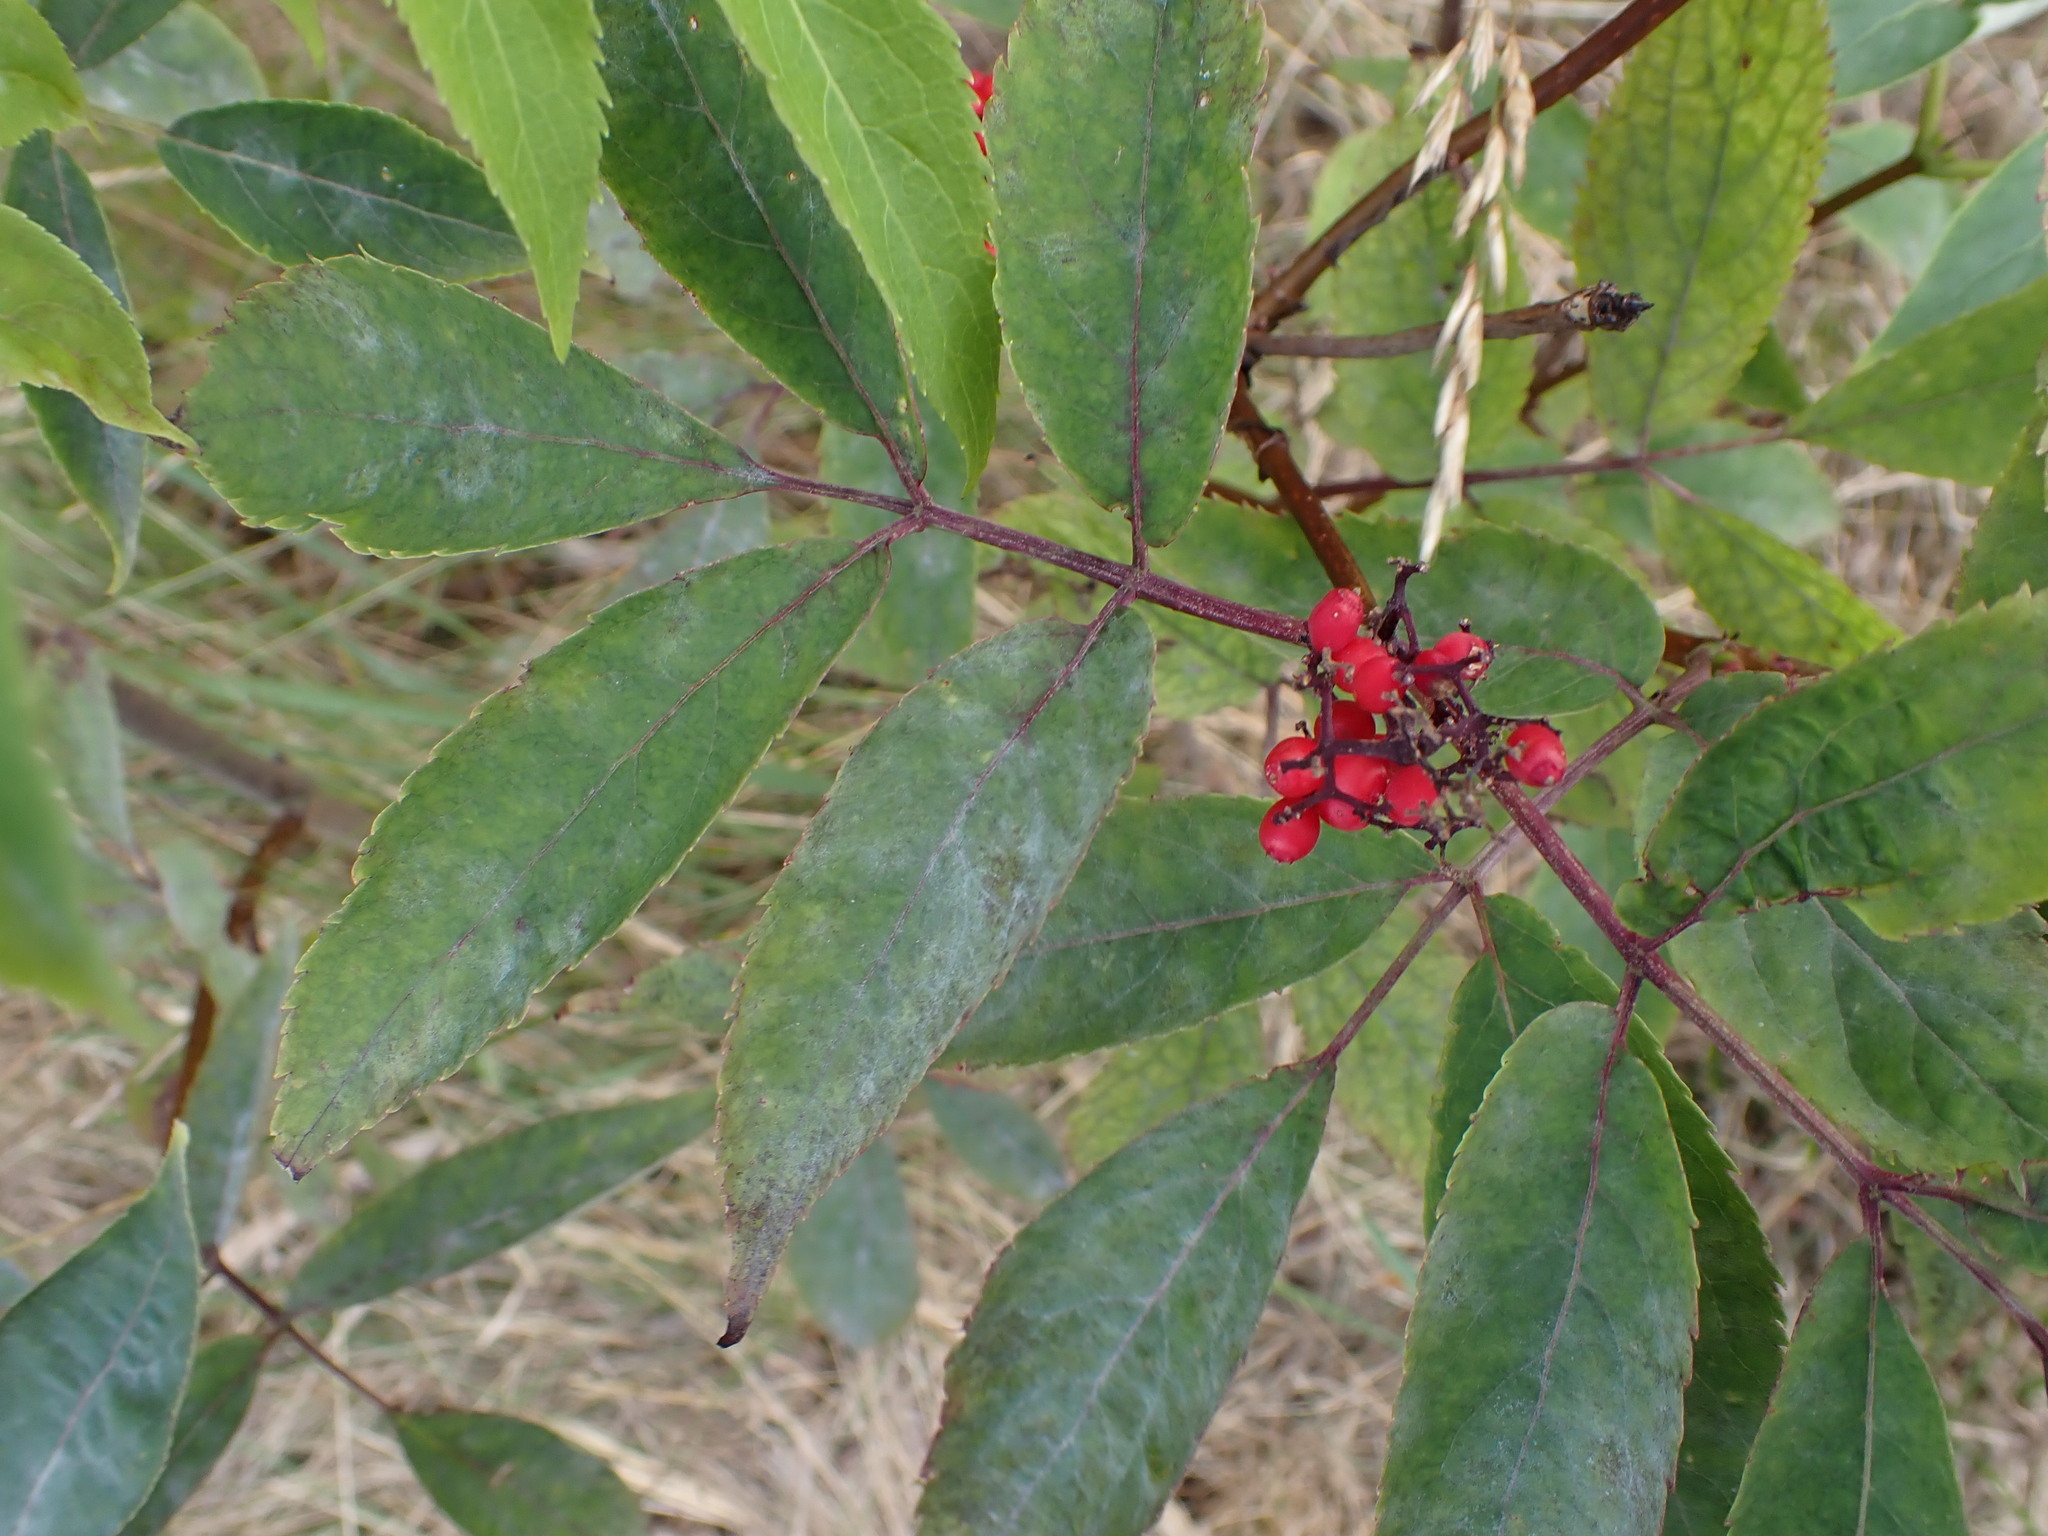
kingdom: Fungi
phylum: Ascomycota
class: Leotiomycetes
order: Helotiales
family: Erysiphaceae
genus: Erysiphe
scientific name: Erysiphe sambuci
